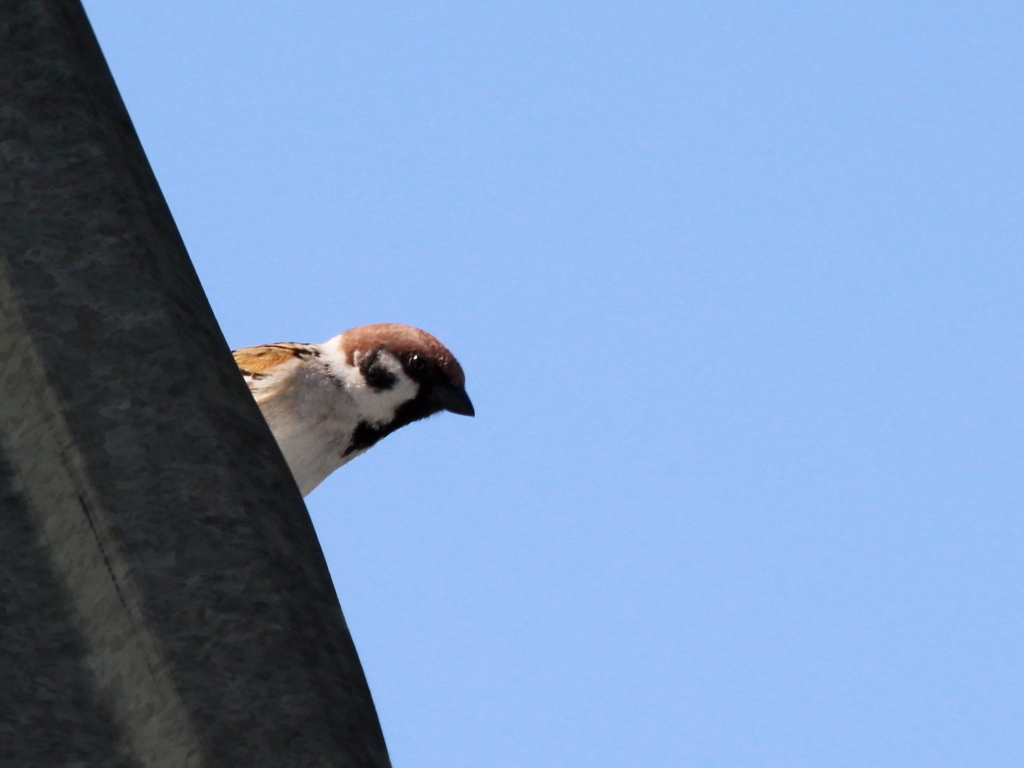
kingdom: Animalia
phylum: Chordata
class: Aves
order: Passeriformes
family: Passeridae
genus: Passer
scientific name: Passer montanus
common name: Eurasian tree sparrow
